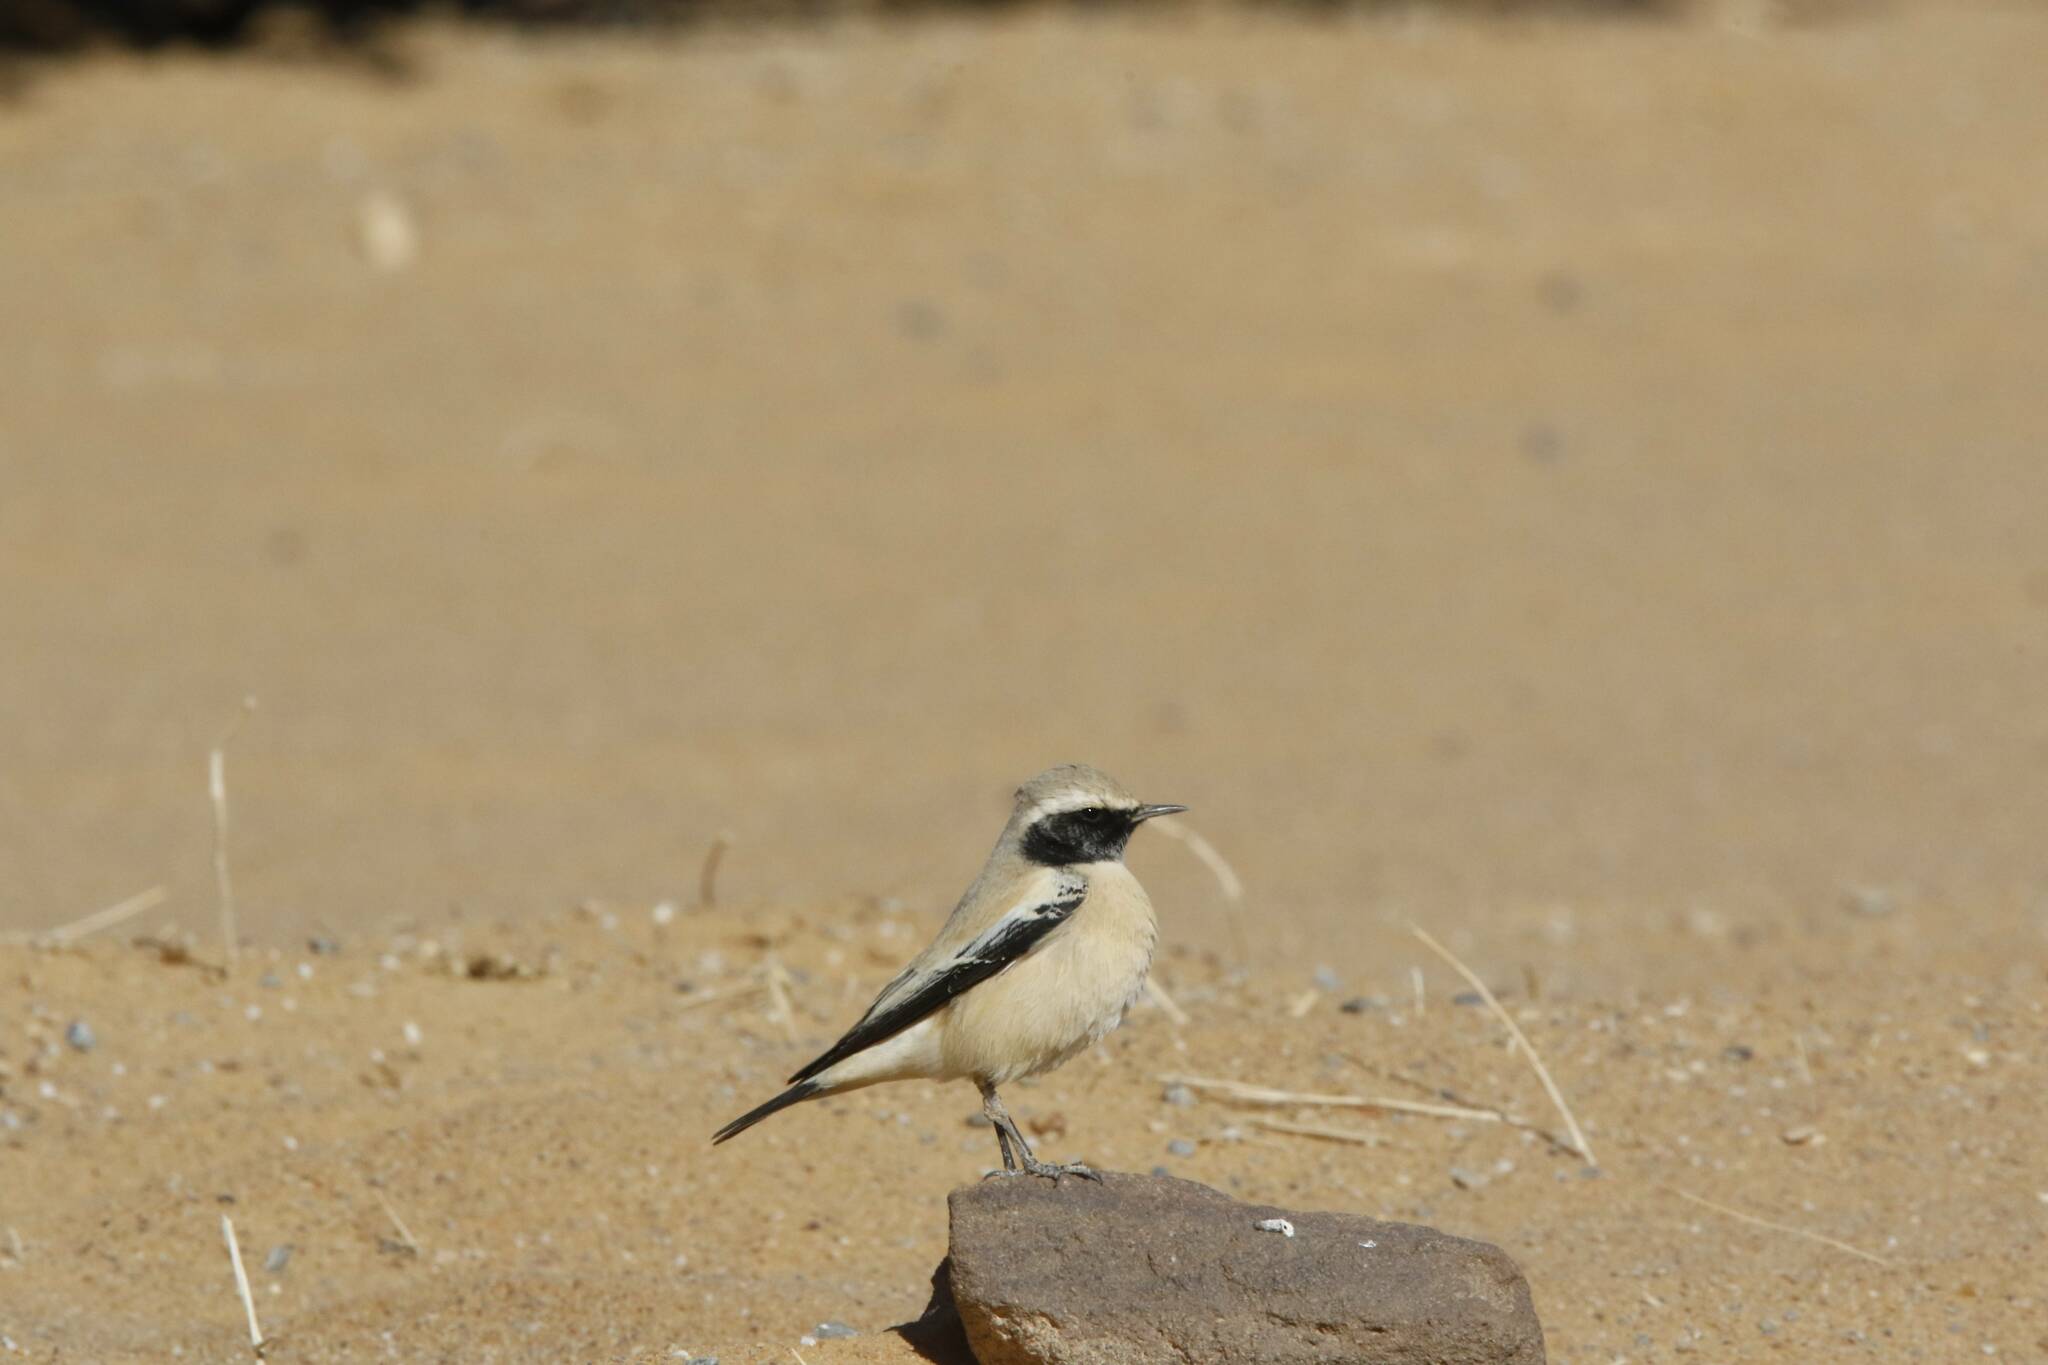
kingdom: Animalia
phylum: Chordata
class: Aves
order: Passeriformes
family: Muscicapidae
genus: Oenanthe
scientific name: Oenanthe deserti
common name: Desert wheatear
